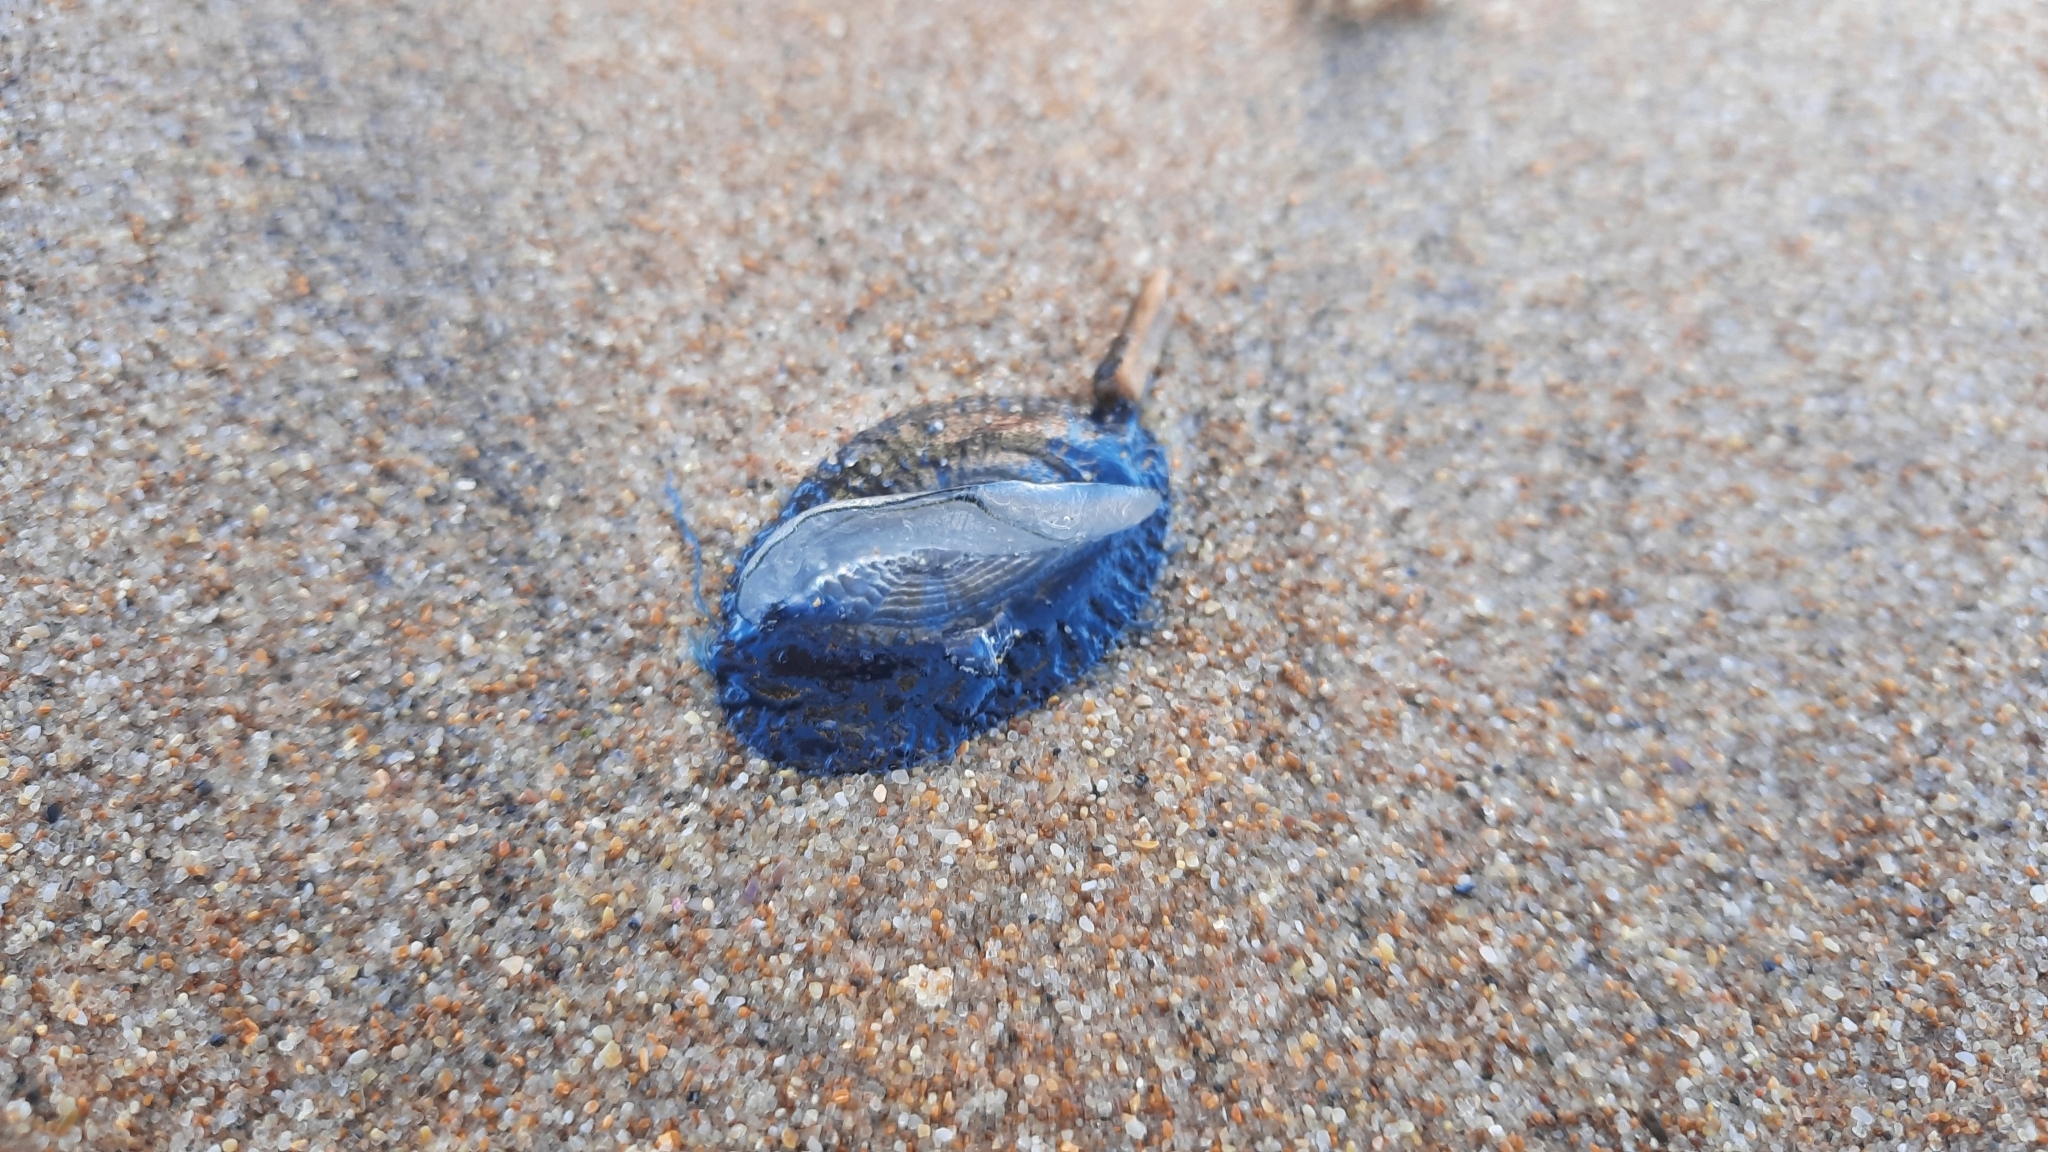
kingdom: Animalia
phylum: Cnidaria
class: Hydrozoa
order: Anthoathecata
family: Porpitidae
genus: Velella
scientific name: Velella velella
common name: By-the-wind-sailor
